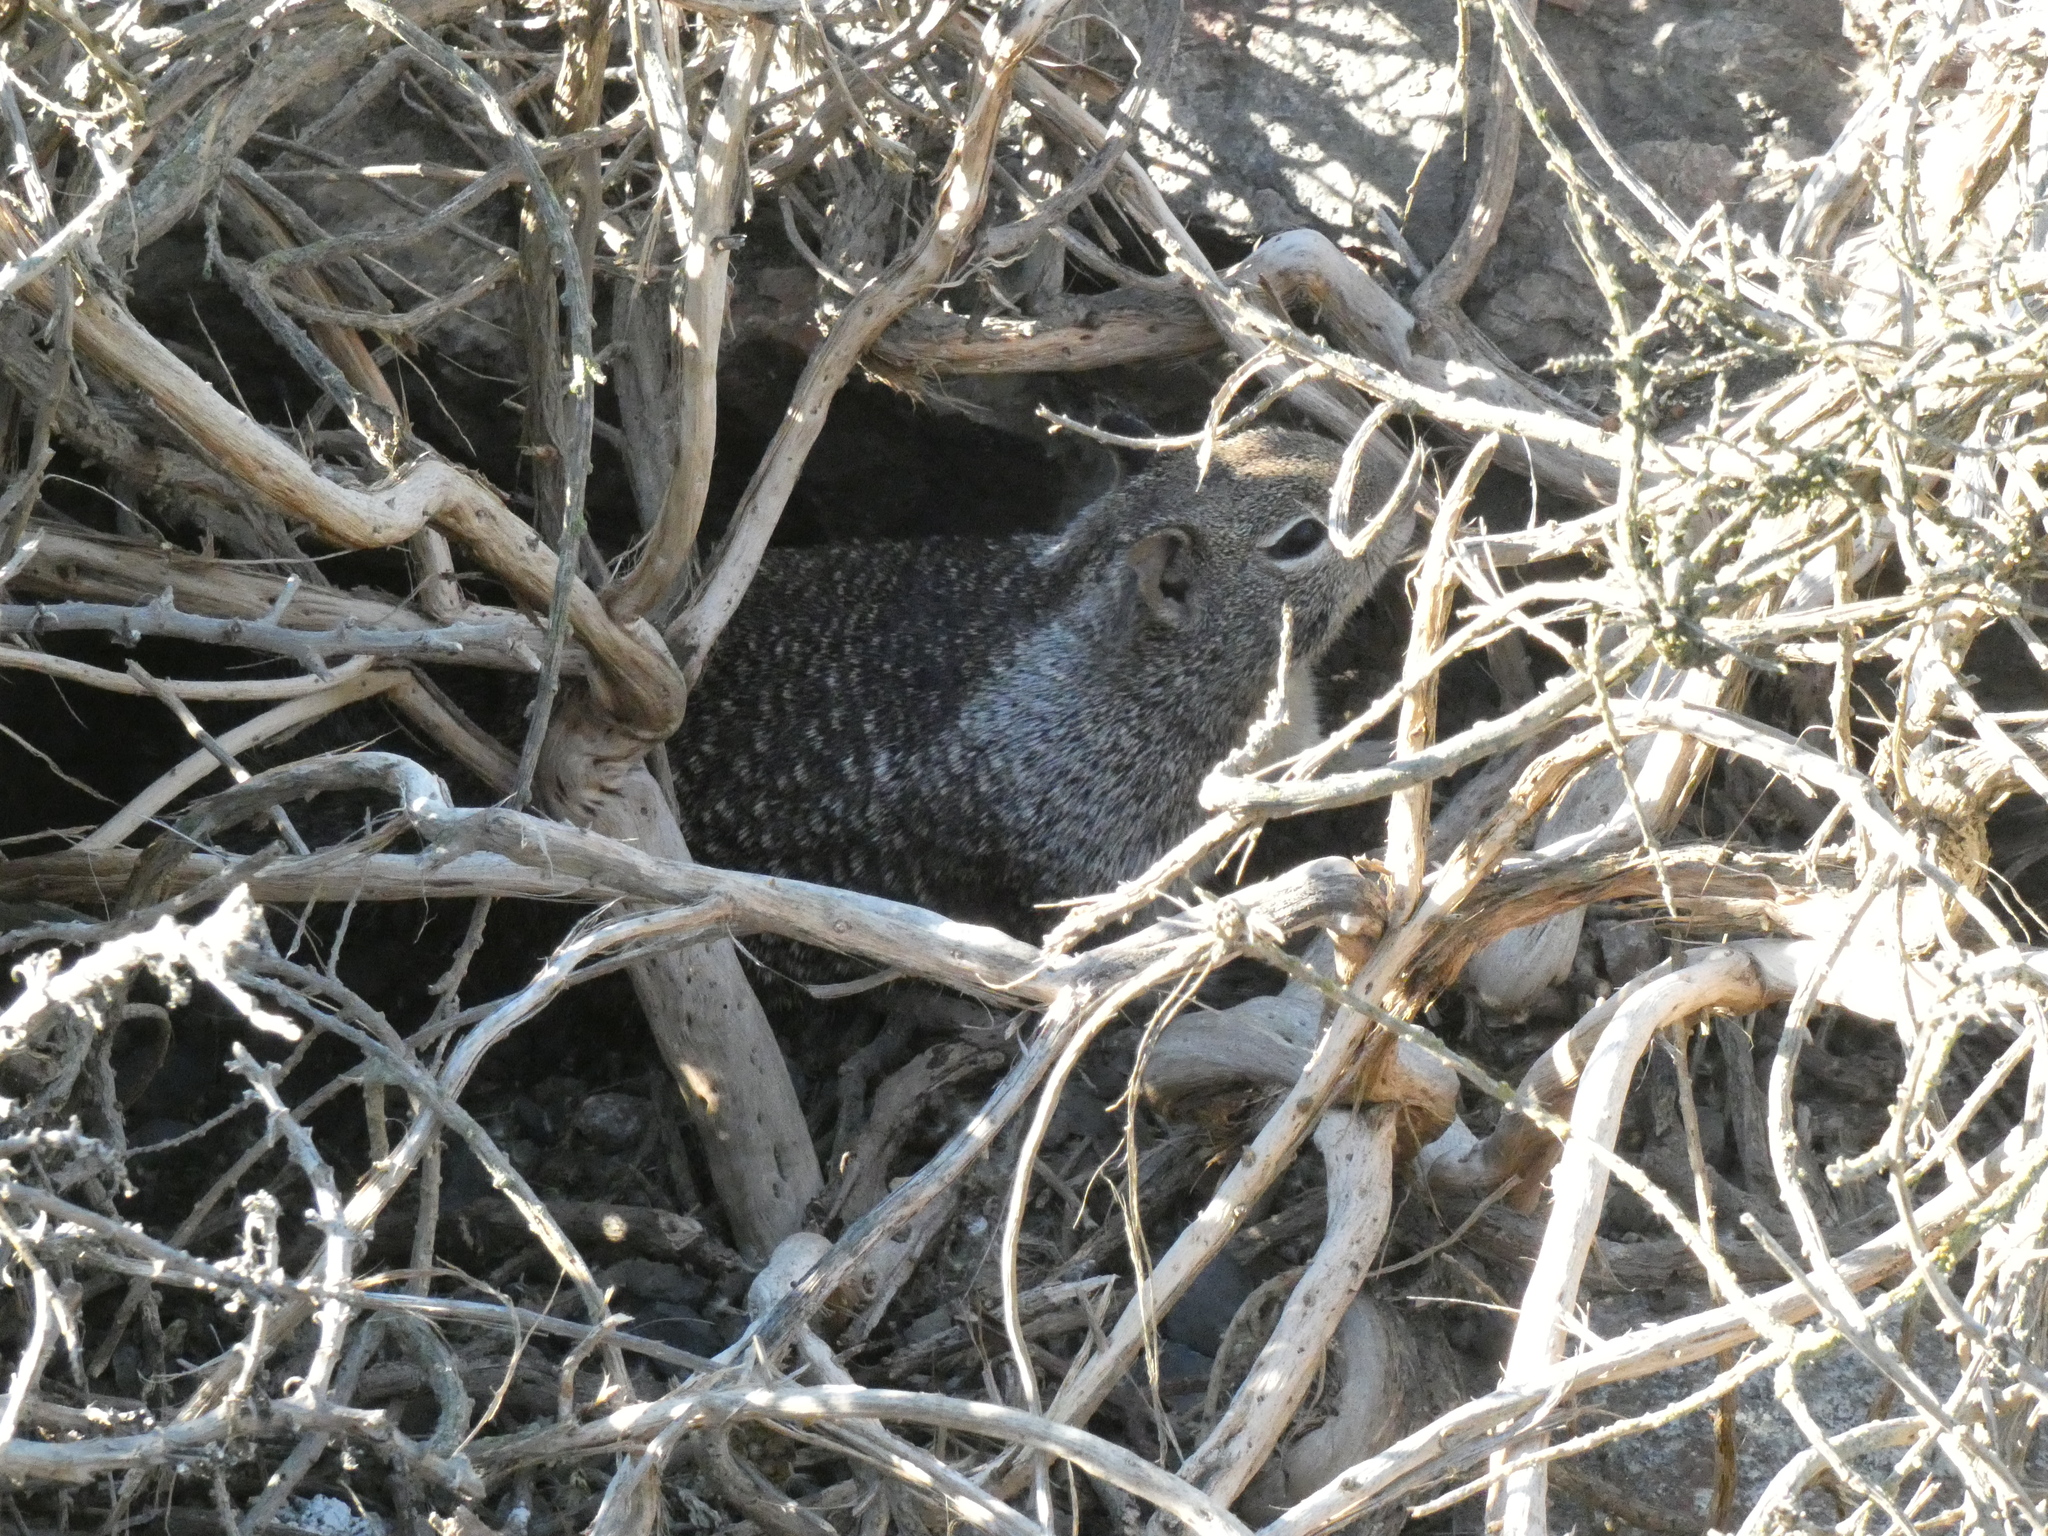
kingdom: Animalia
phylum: Chordata
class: Mammalia
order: Rodentia
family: Sciuridae
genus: Otospermophilus
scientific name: Otospermophilus beecheyi
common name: California ground squirrel
